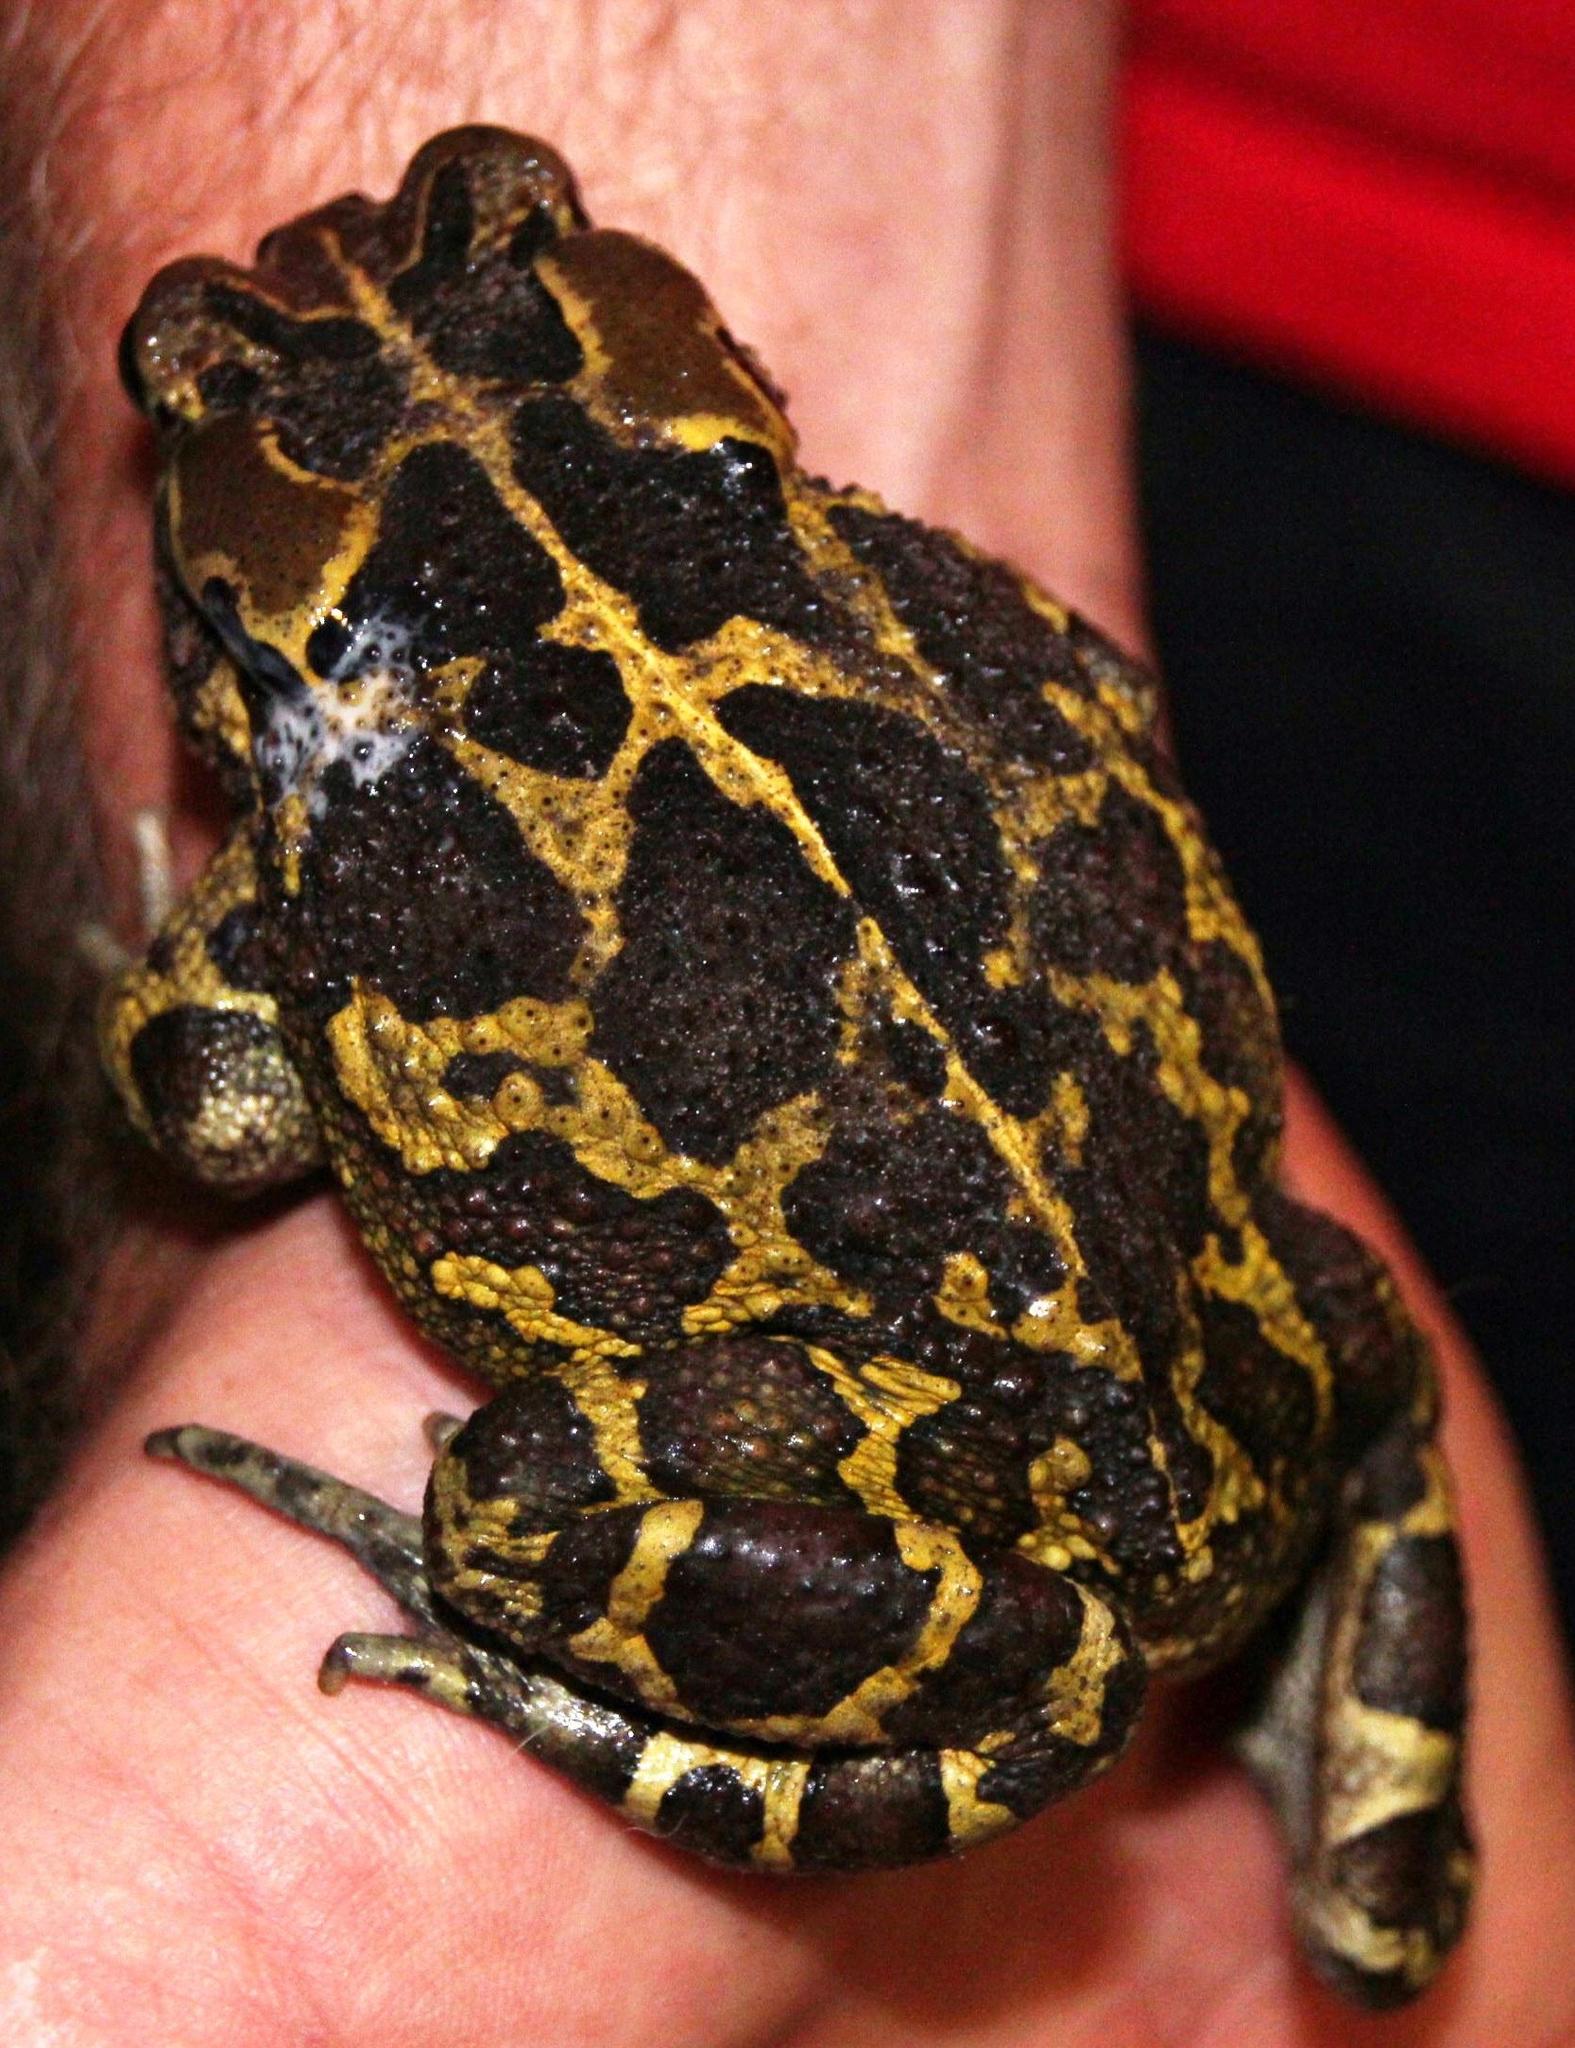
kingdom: Animalia
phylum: Chordata
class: Amphibia
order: Anura
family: Bufonidae
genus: Sclerophrys
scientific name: Sclerophrys pantherina
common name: Panther toad
